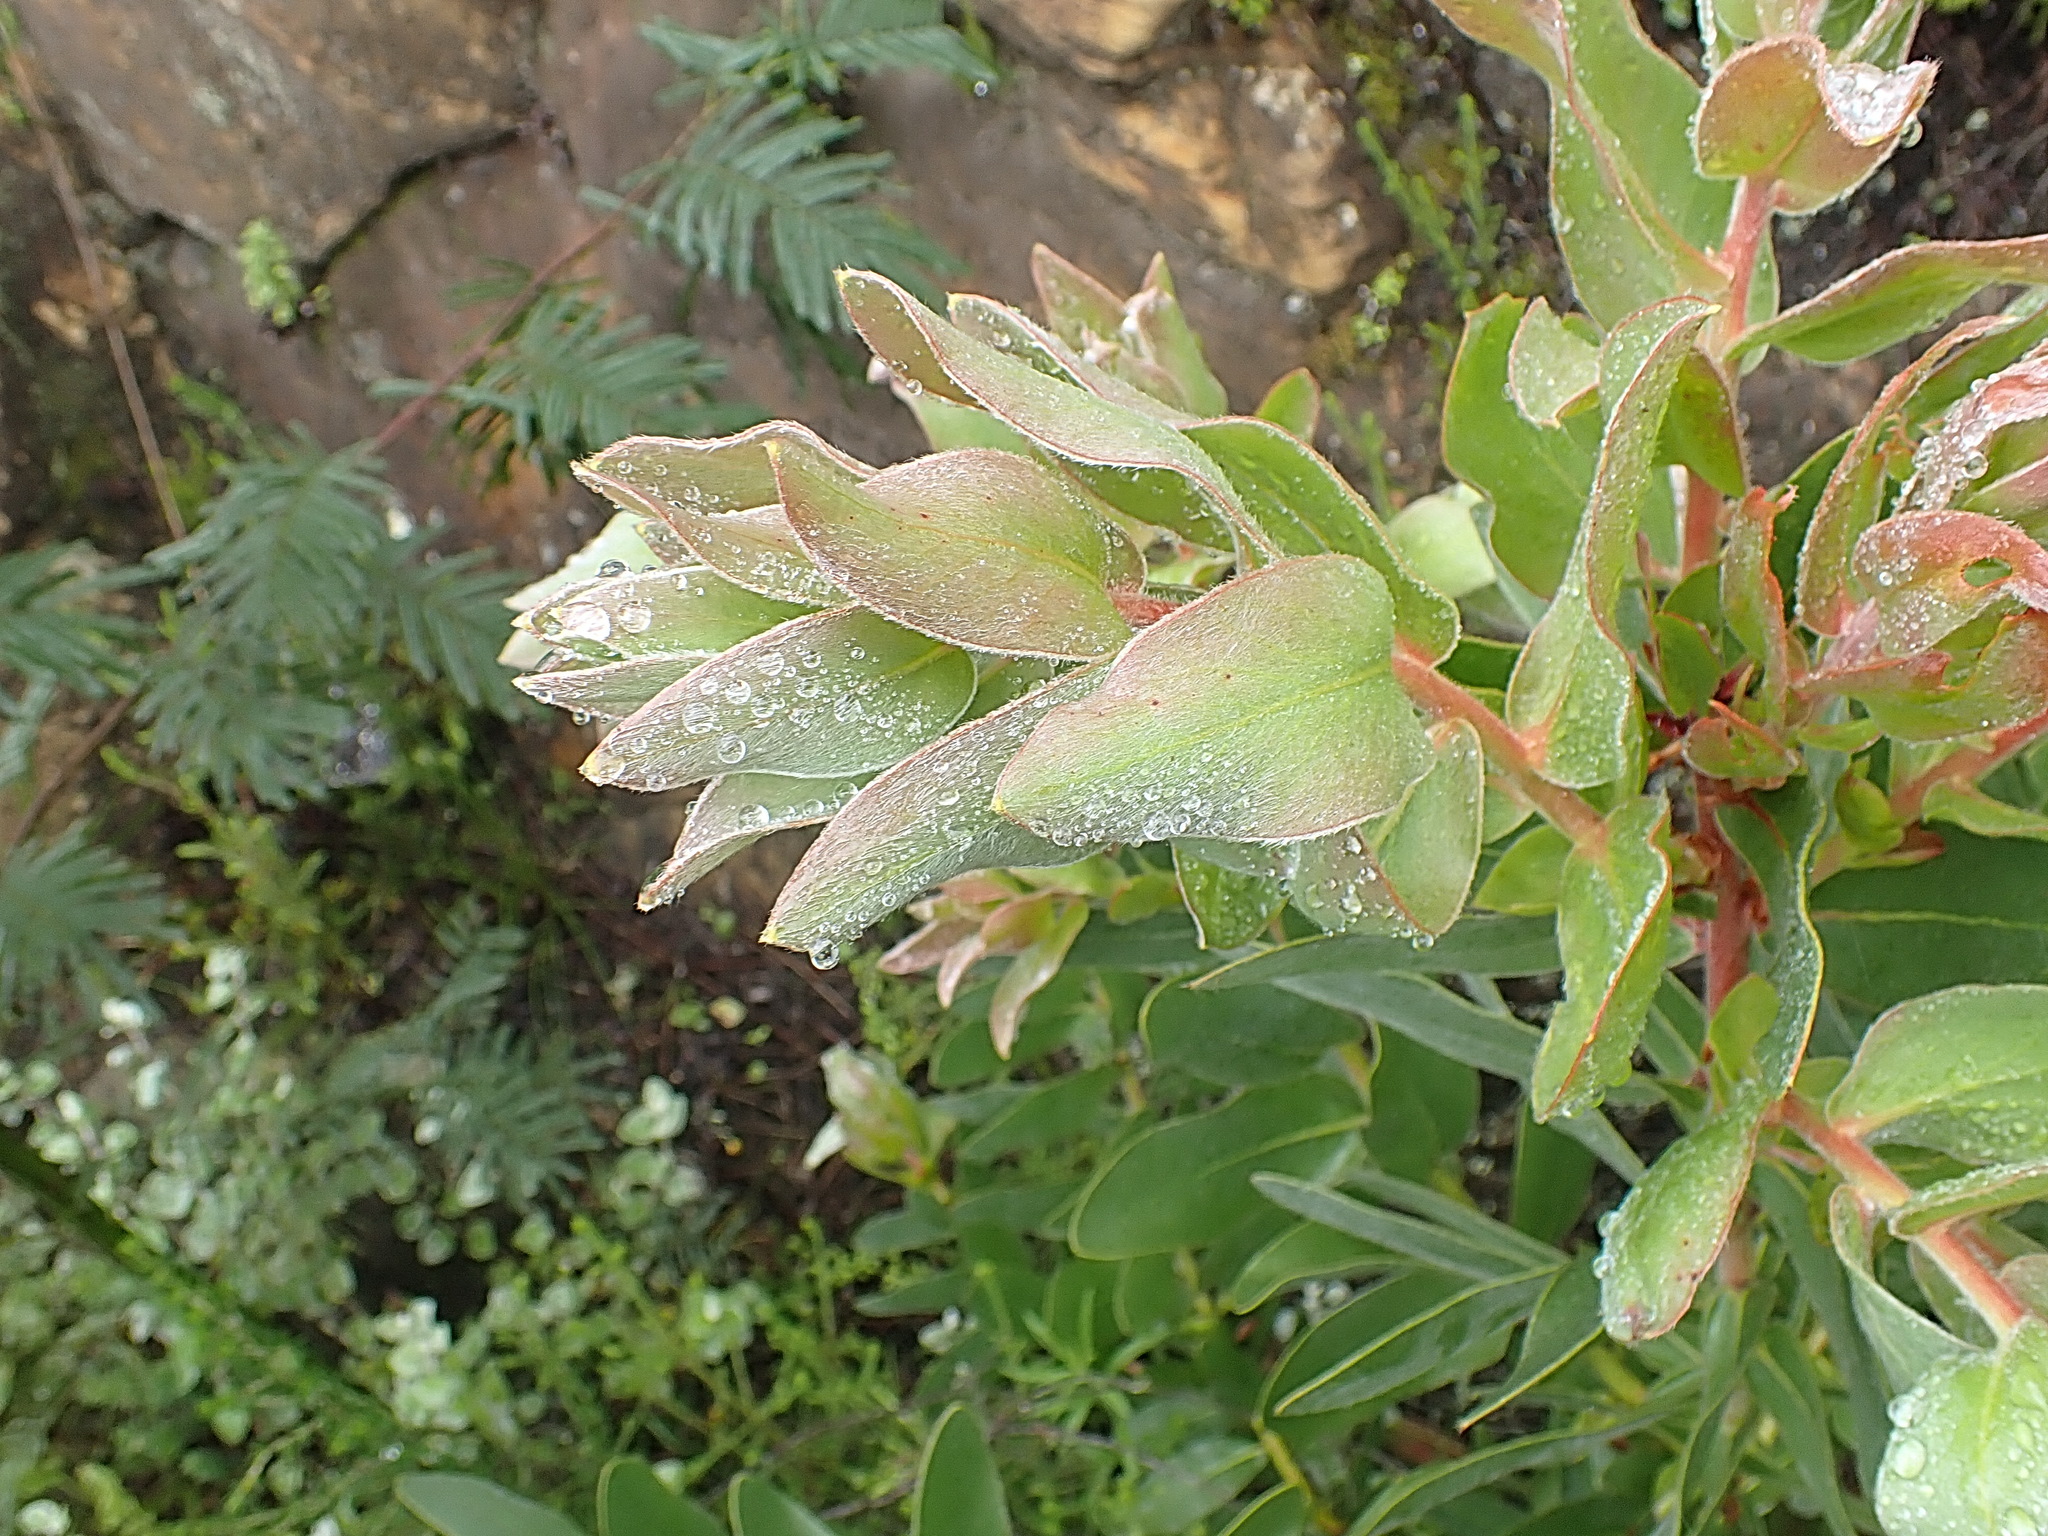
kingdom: Plantae
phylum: Tracheophyta
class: Magnoliopsida
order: Proteales
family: Proteaceae
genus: Protea
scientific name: Protea aurea
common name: Shuttlecock sugarbush
